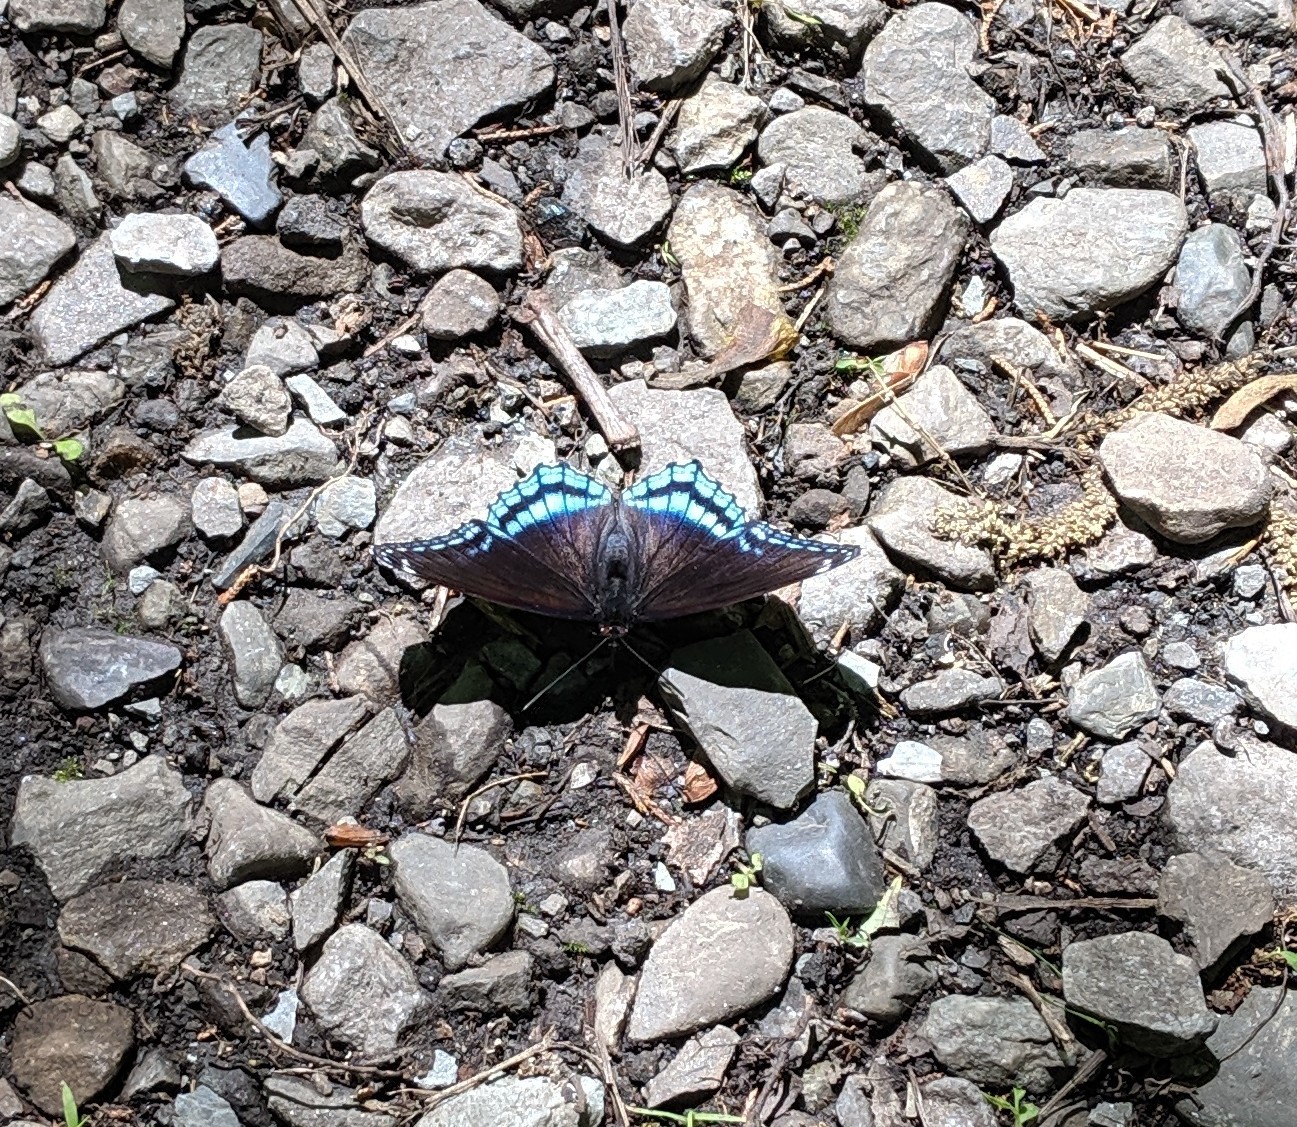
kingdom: Animalia
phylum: Arthropoda
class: Insecta
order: Lepidoptera
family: Nymphalidae
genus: Limenitis
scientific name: Limenitis astyanax
